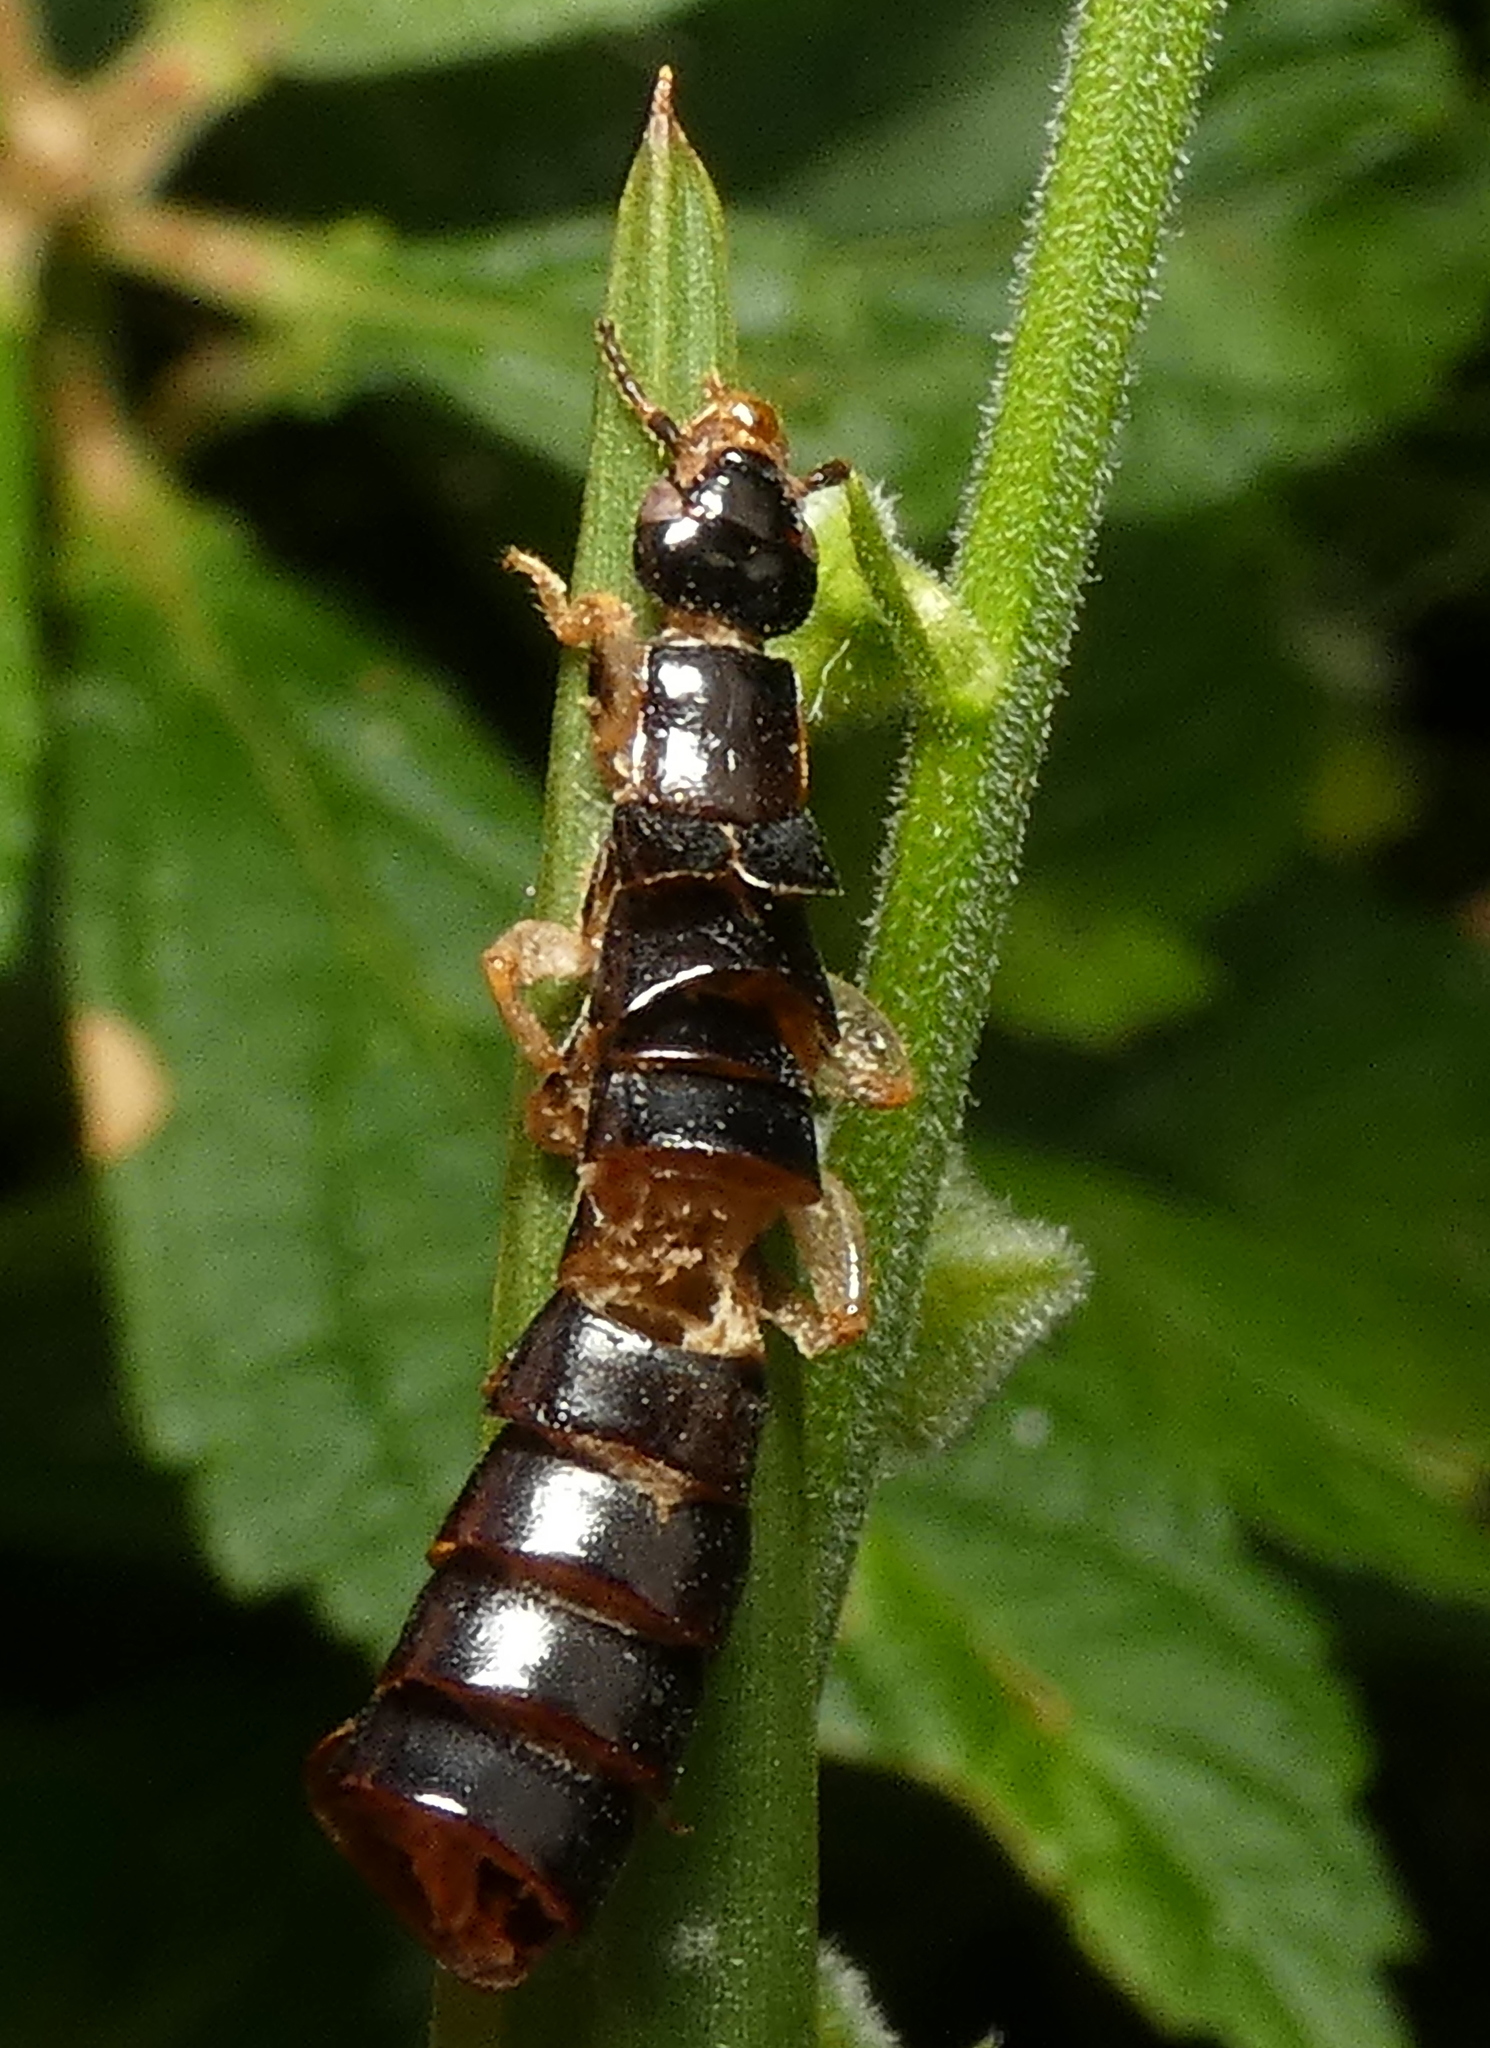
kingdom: Animalia
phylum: Arthropoda
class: Insecta
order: Dermaptera
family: Anisolabididae
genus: Euborellia
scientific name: Euborellia janeirensis
